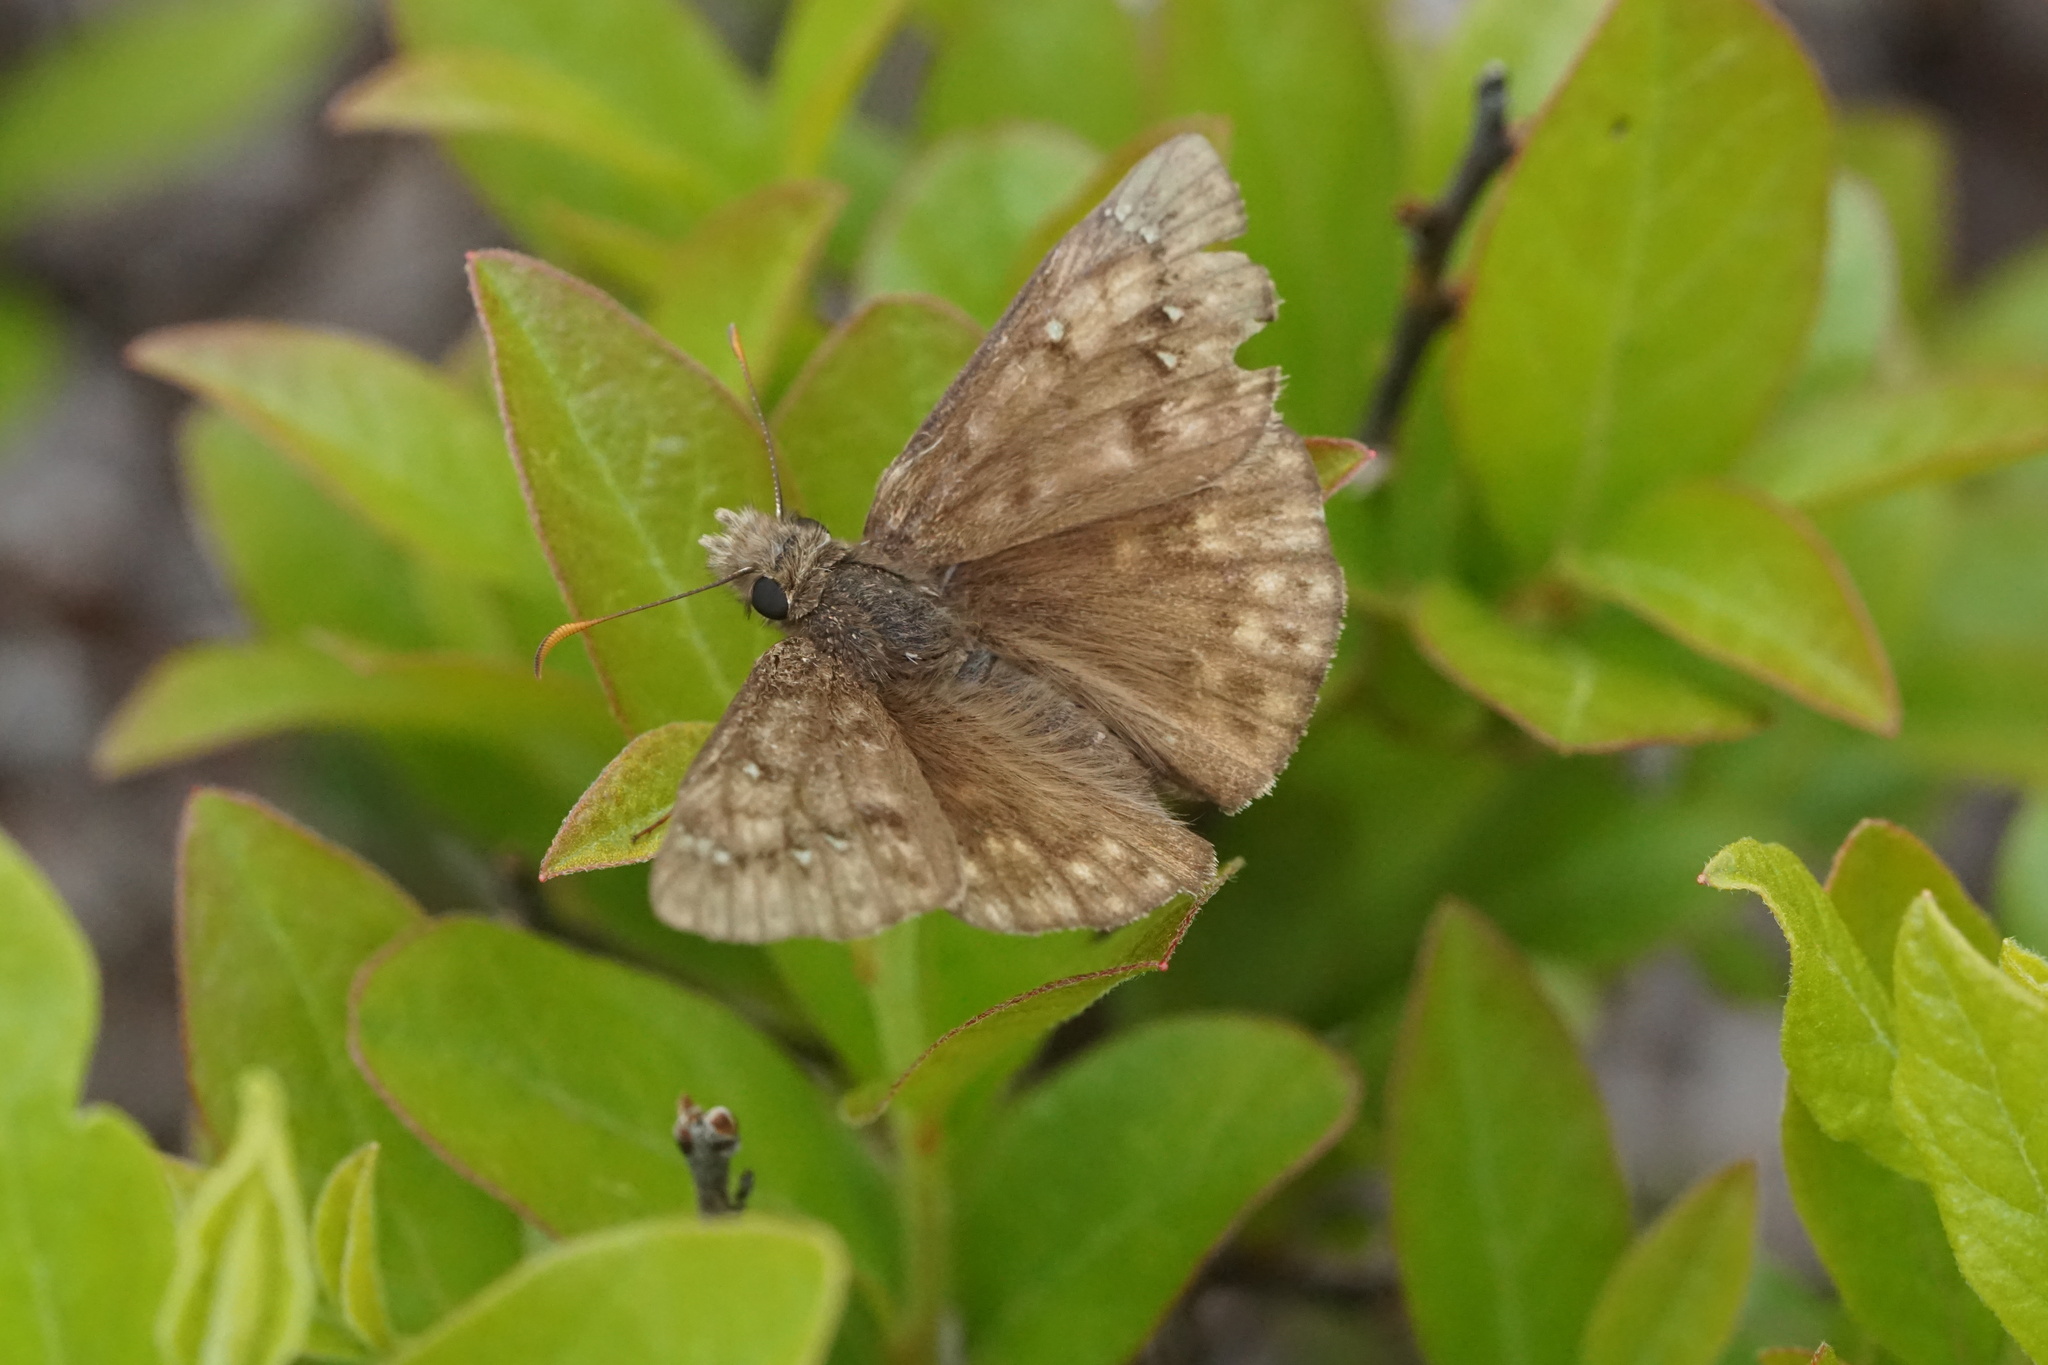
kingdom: Animalia
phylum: Arthropoda
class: Insecta
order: Lepidoptera
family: Hesperiidae
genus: Erynnis
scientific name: Erynnis juvenalis
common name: Juvenal's duskywing
